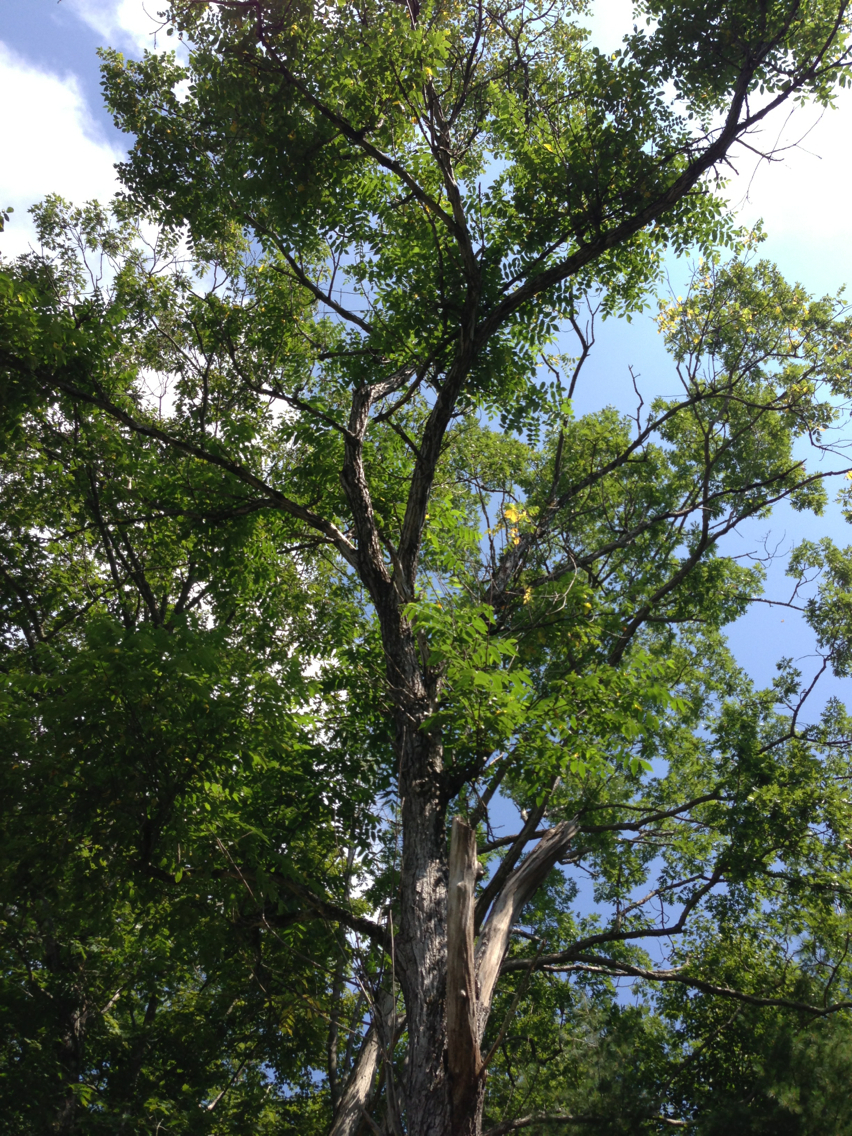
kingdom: Plantae
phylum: Tracheophyta
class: Magnoliopsida
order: Fagales
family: Juglandaceae
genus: Juglans
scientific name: Juglans cinerea
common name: Butternut
